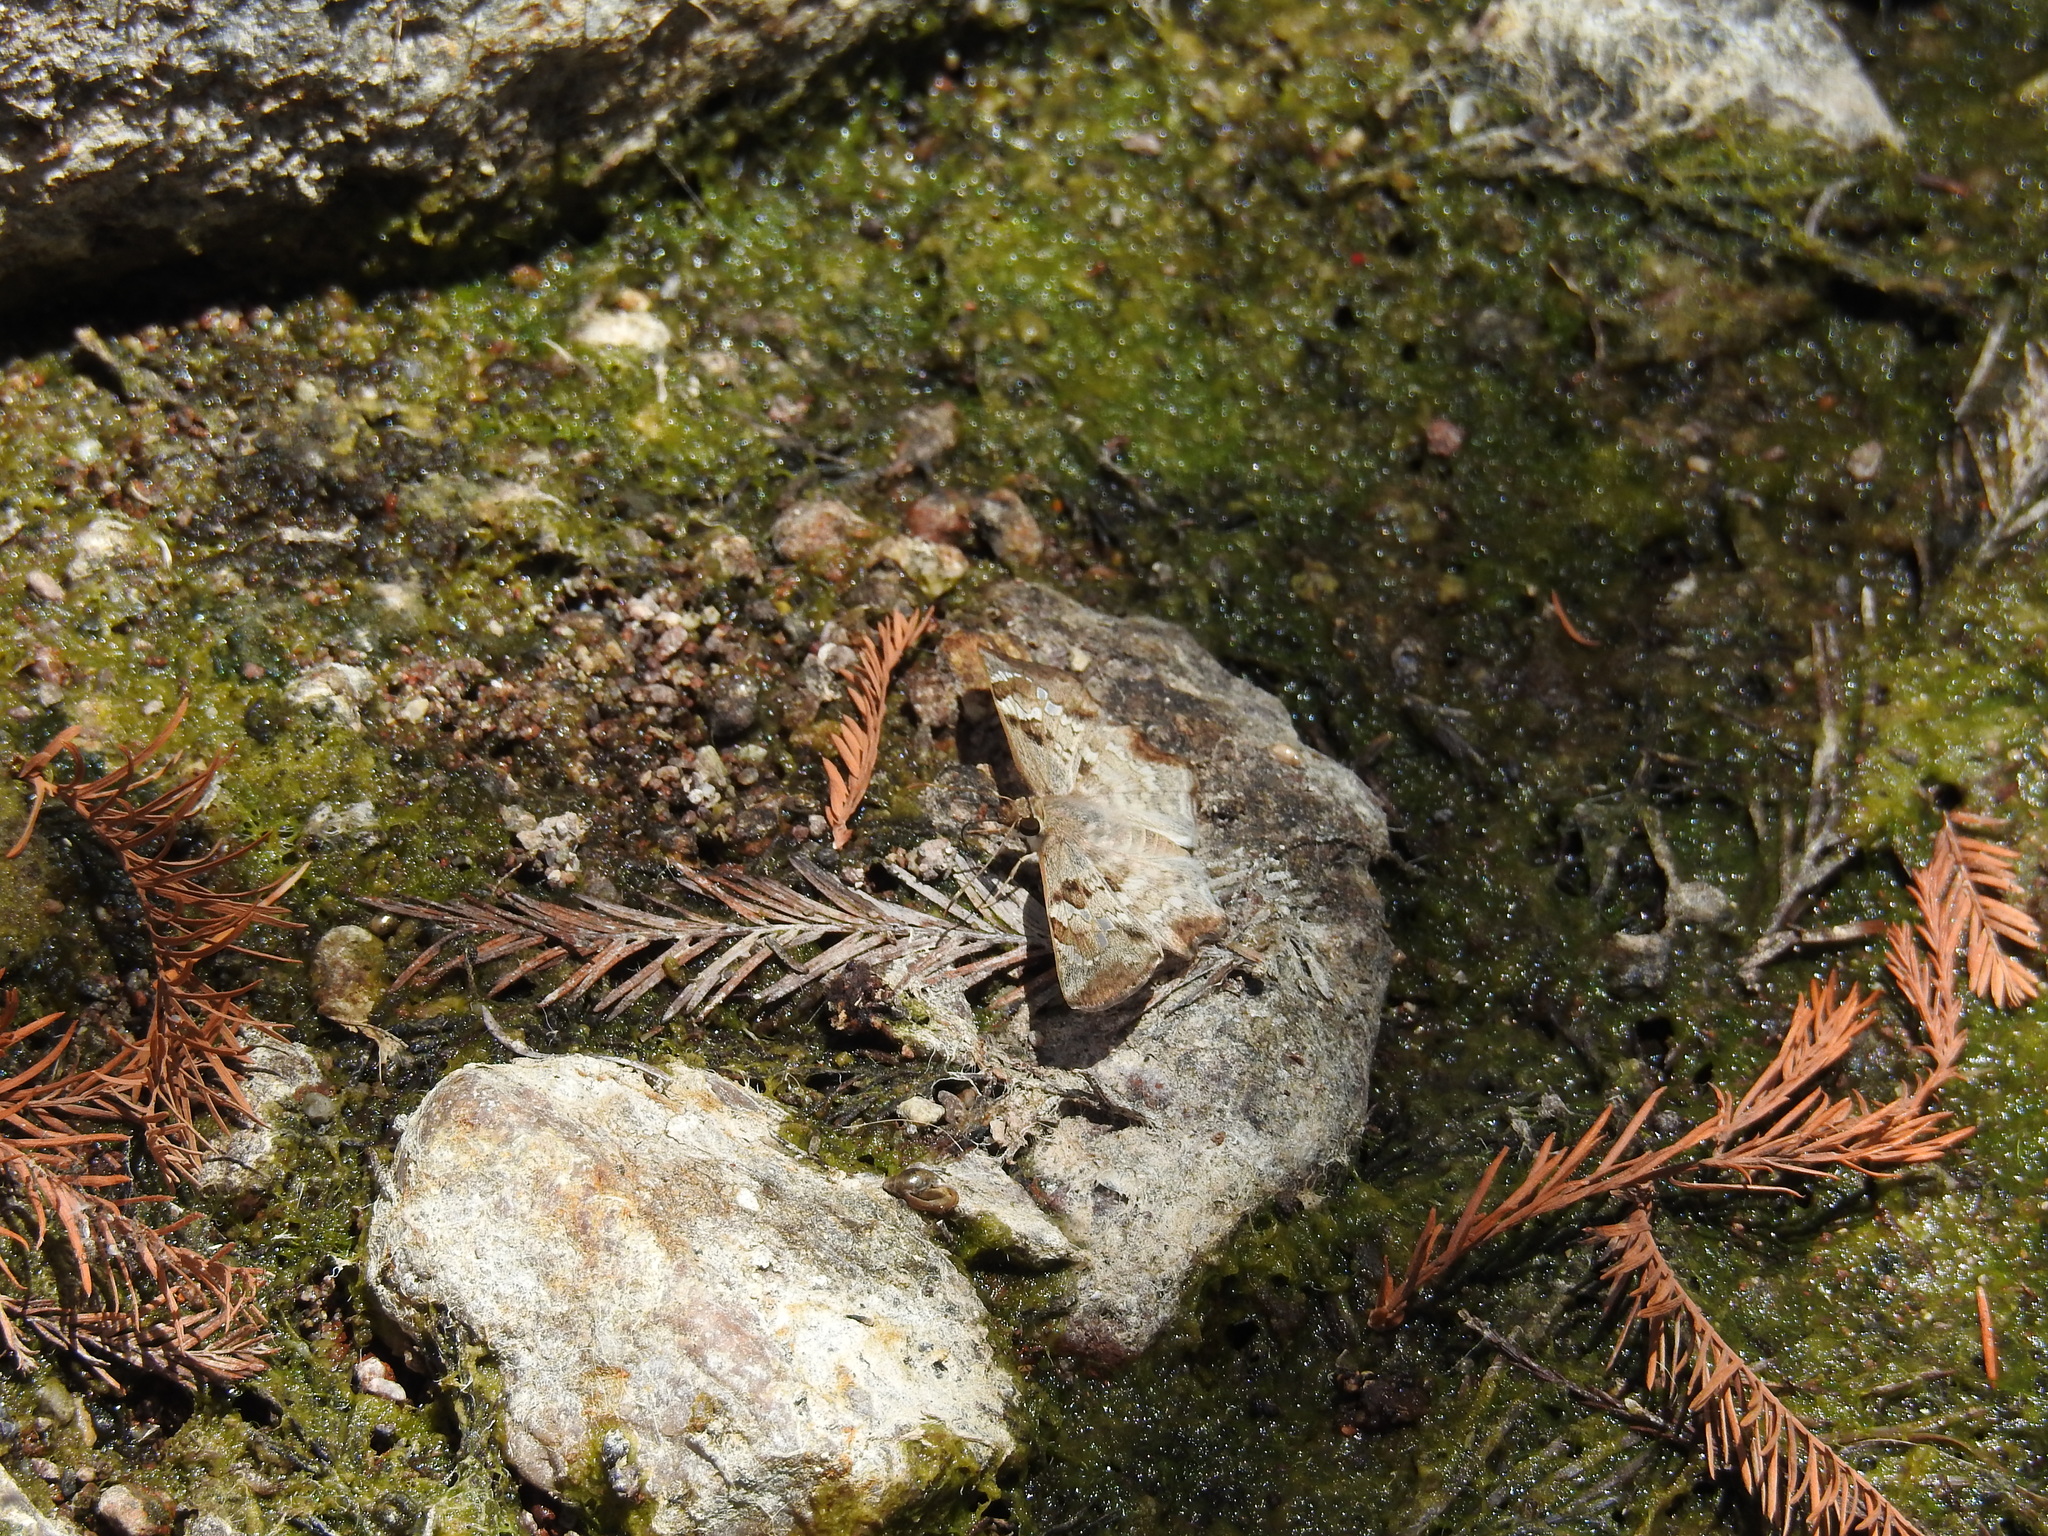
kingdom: Animalia
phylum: Arthropoda
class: Insecta
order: Lepidoptera
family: Hesperiidae
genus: Antigonus
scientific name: Antigonus emorsa
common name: White spurwing
